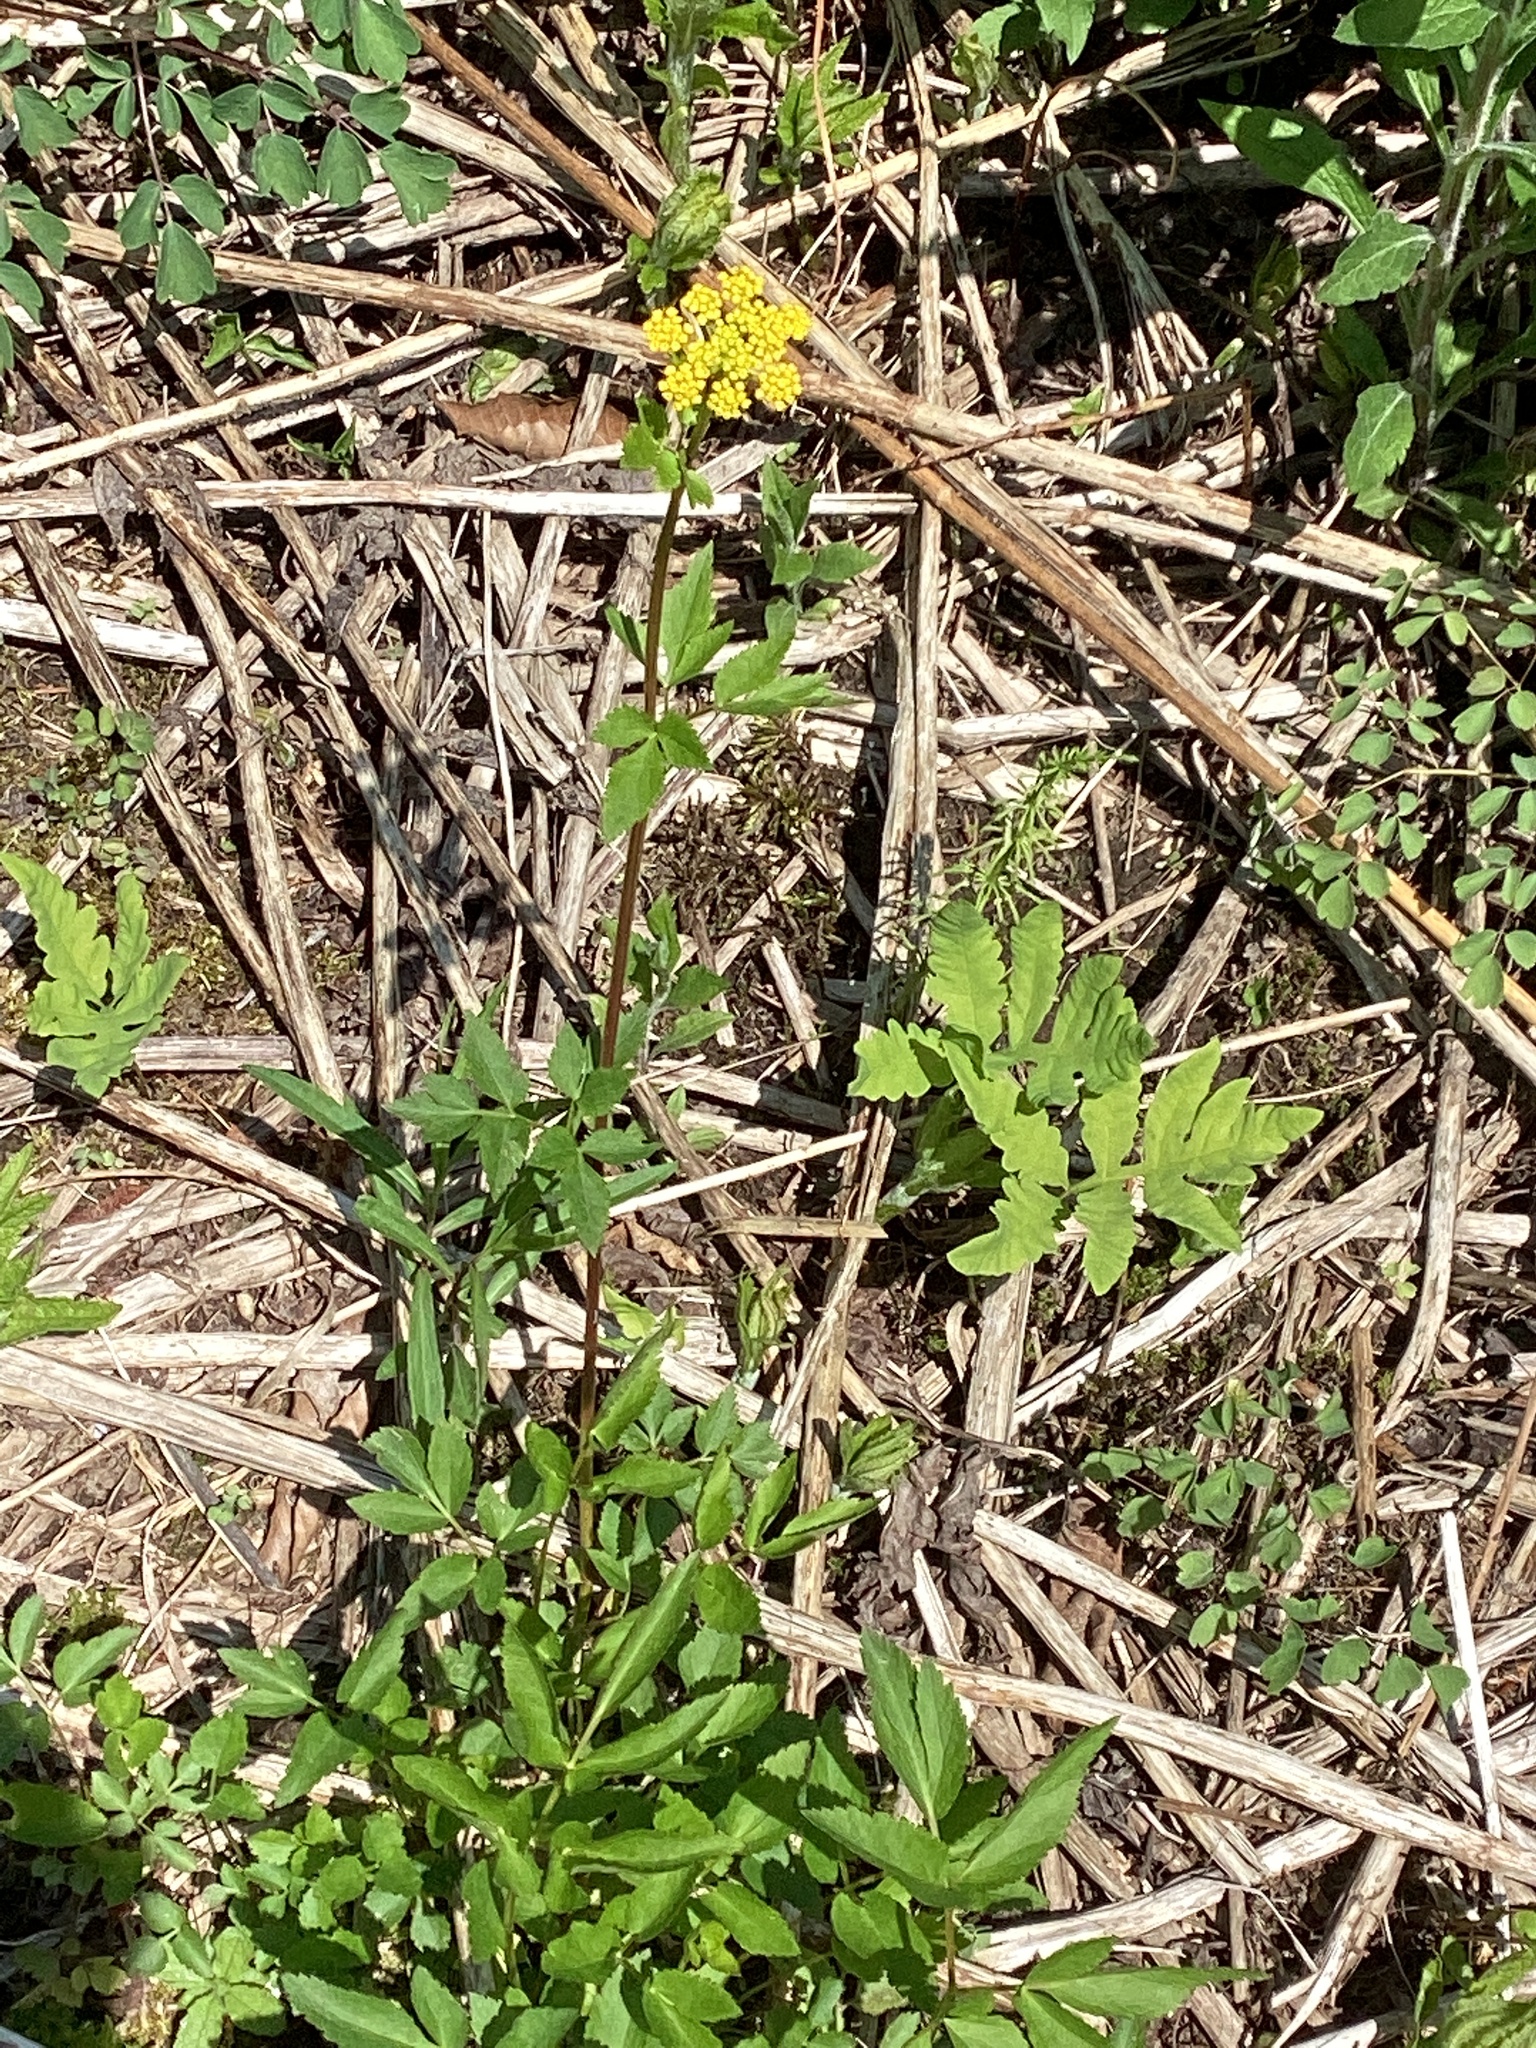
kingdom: Plantae
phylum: Tracheophyta
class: Magnoliopsida
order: Apiales
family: Apiaceae
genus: Zizia
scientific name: Zizia aurea
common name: Golden alexanders
